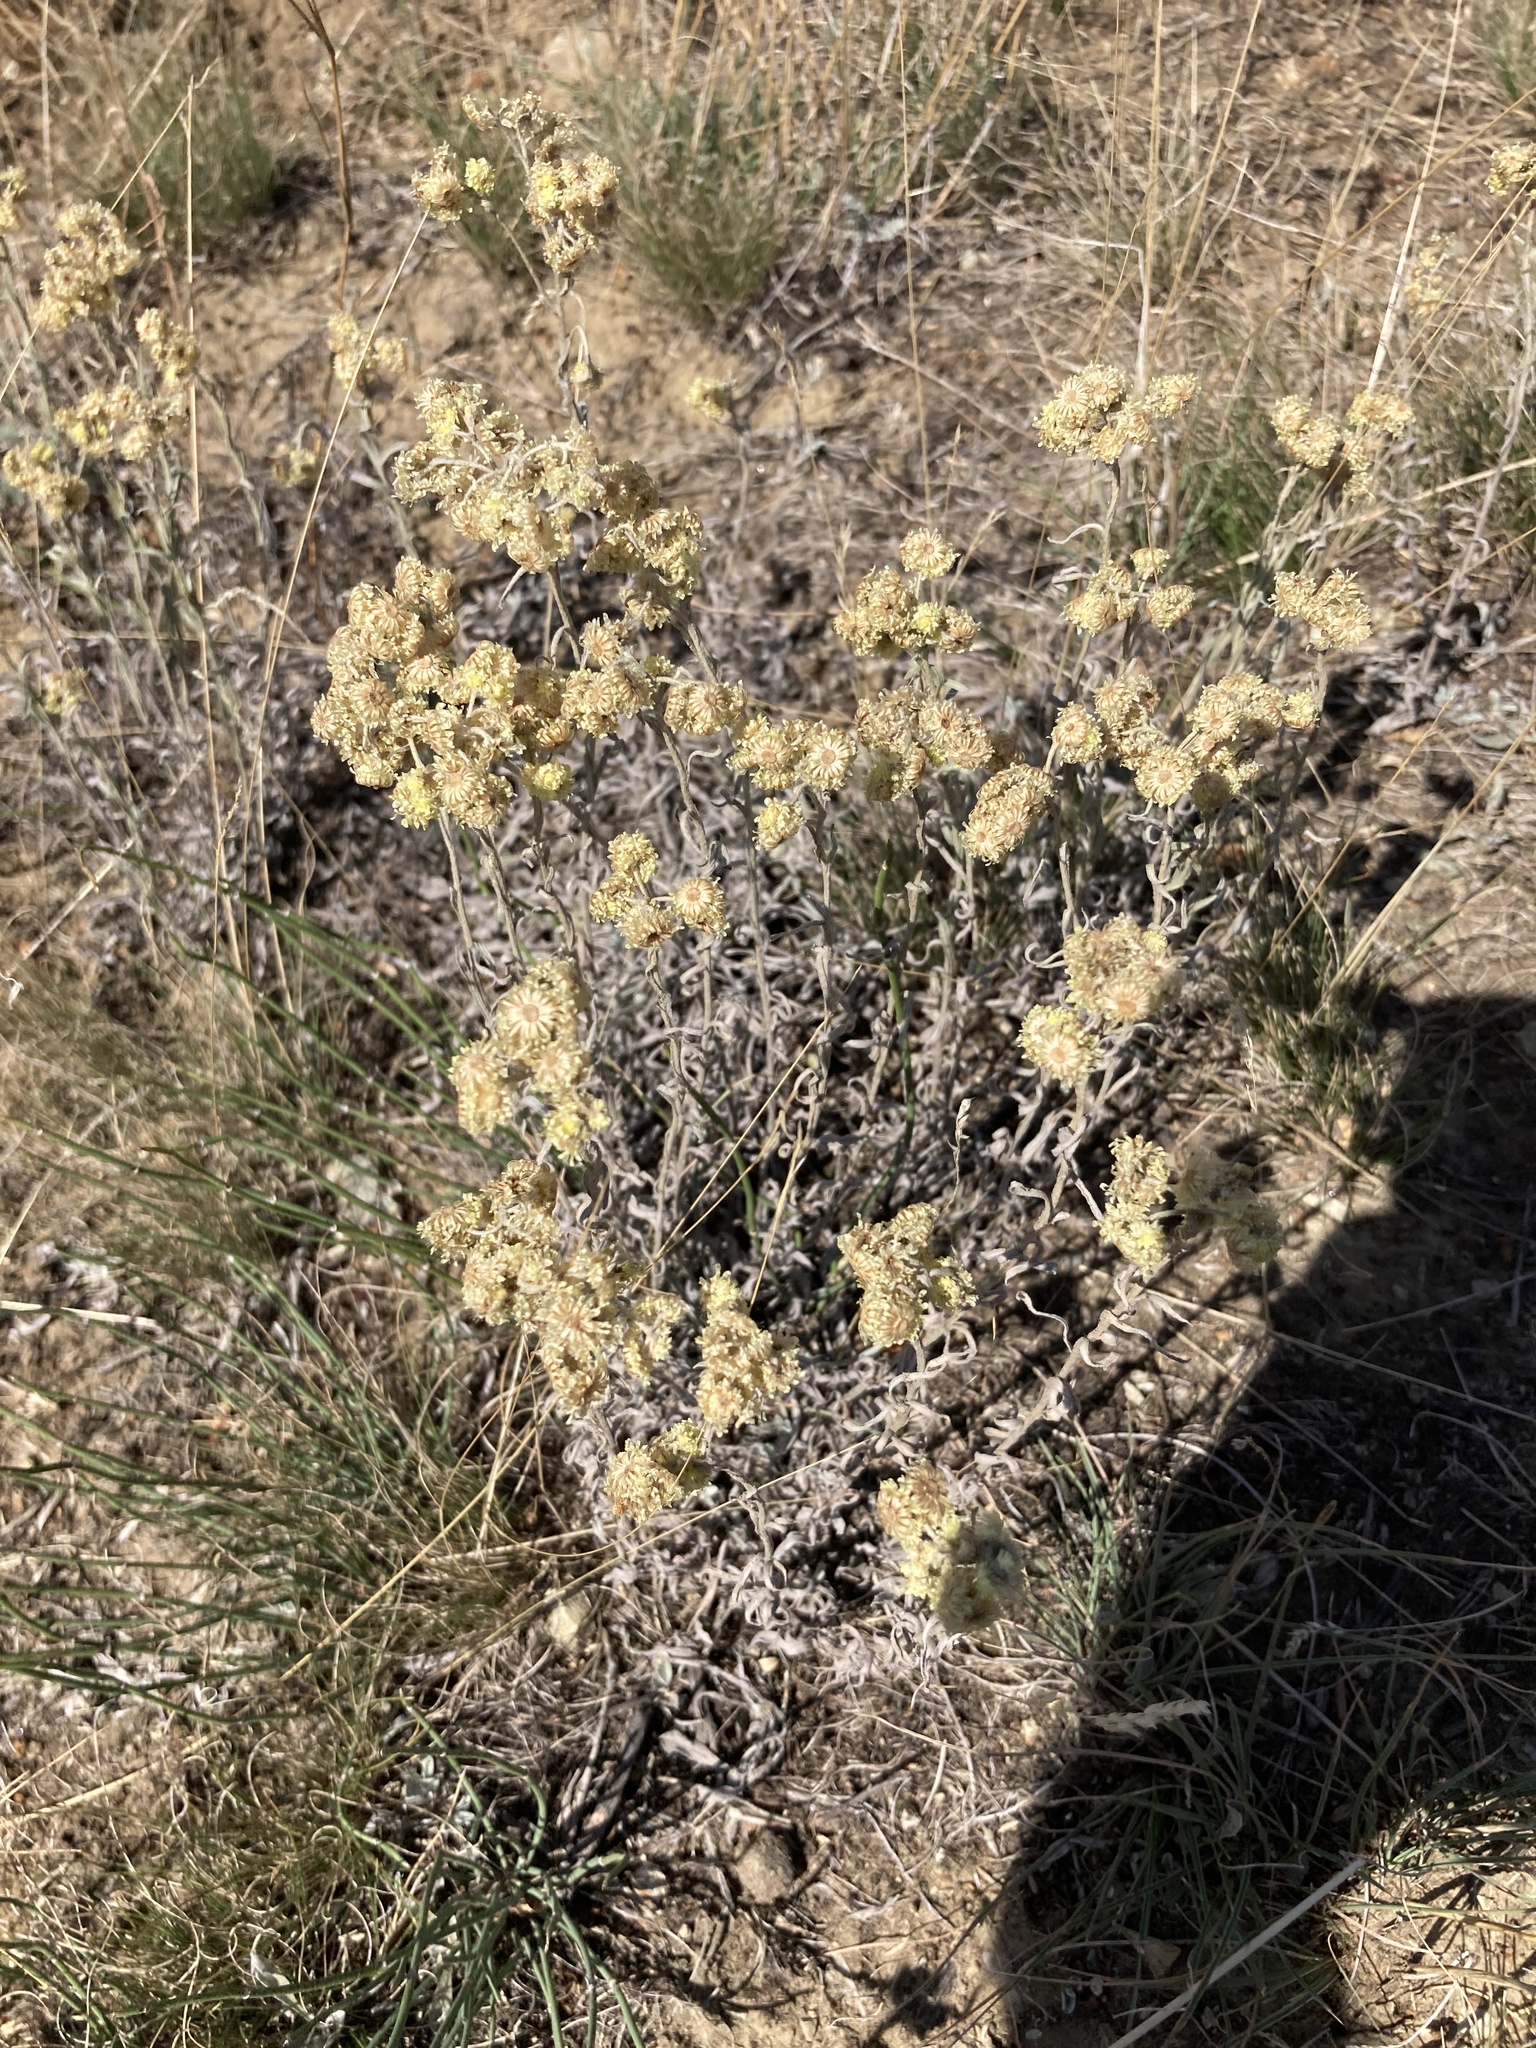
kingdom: Plantae
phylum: Tracheophyta
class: Magnoliopsida
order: Asterales
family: Asteraceae
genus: Helichrysum
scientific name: Helichrysum arenarium
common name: Strawflower
